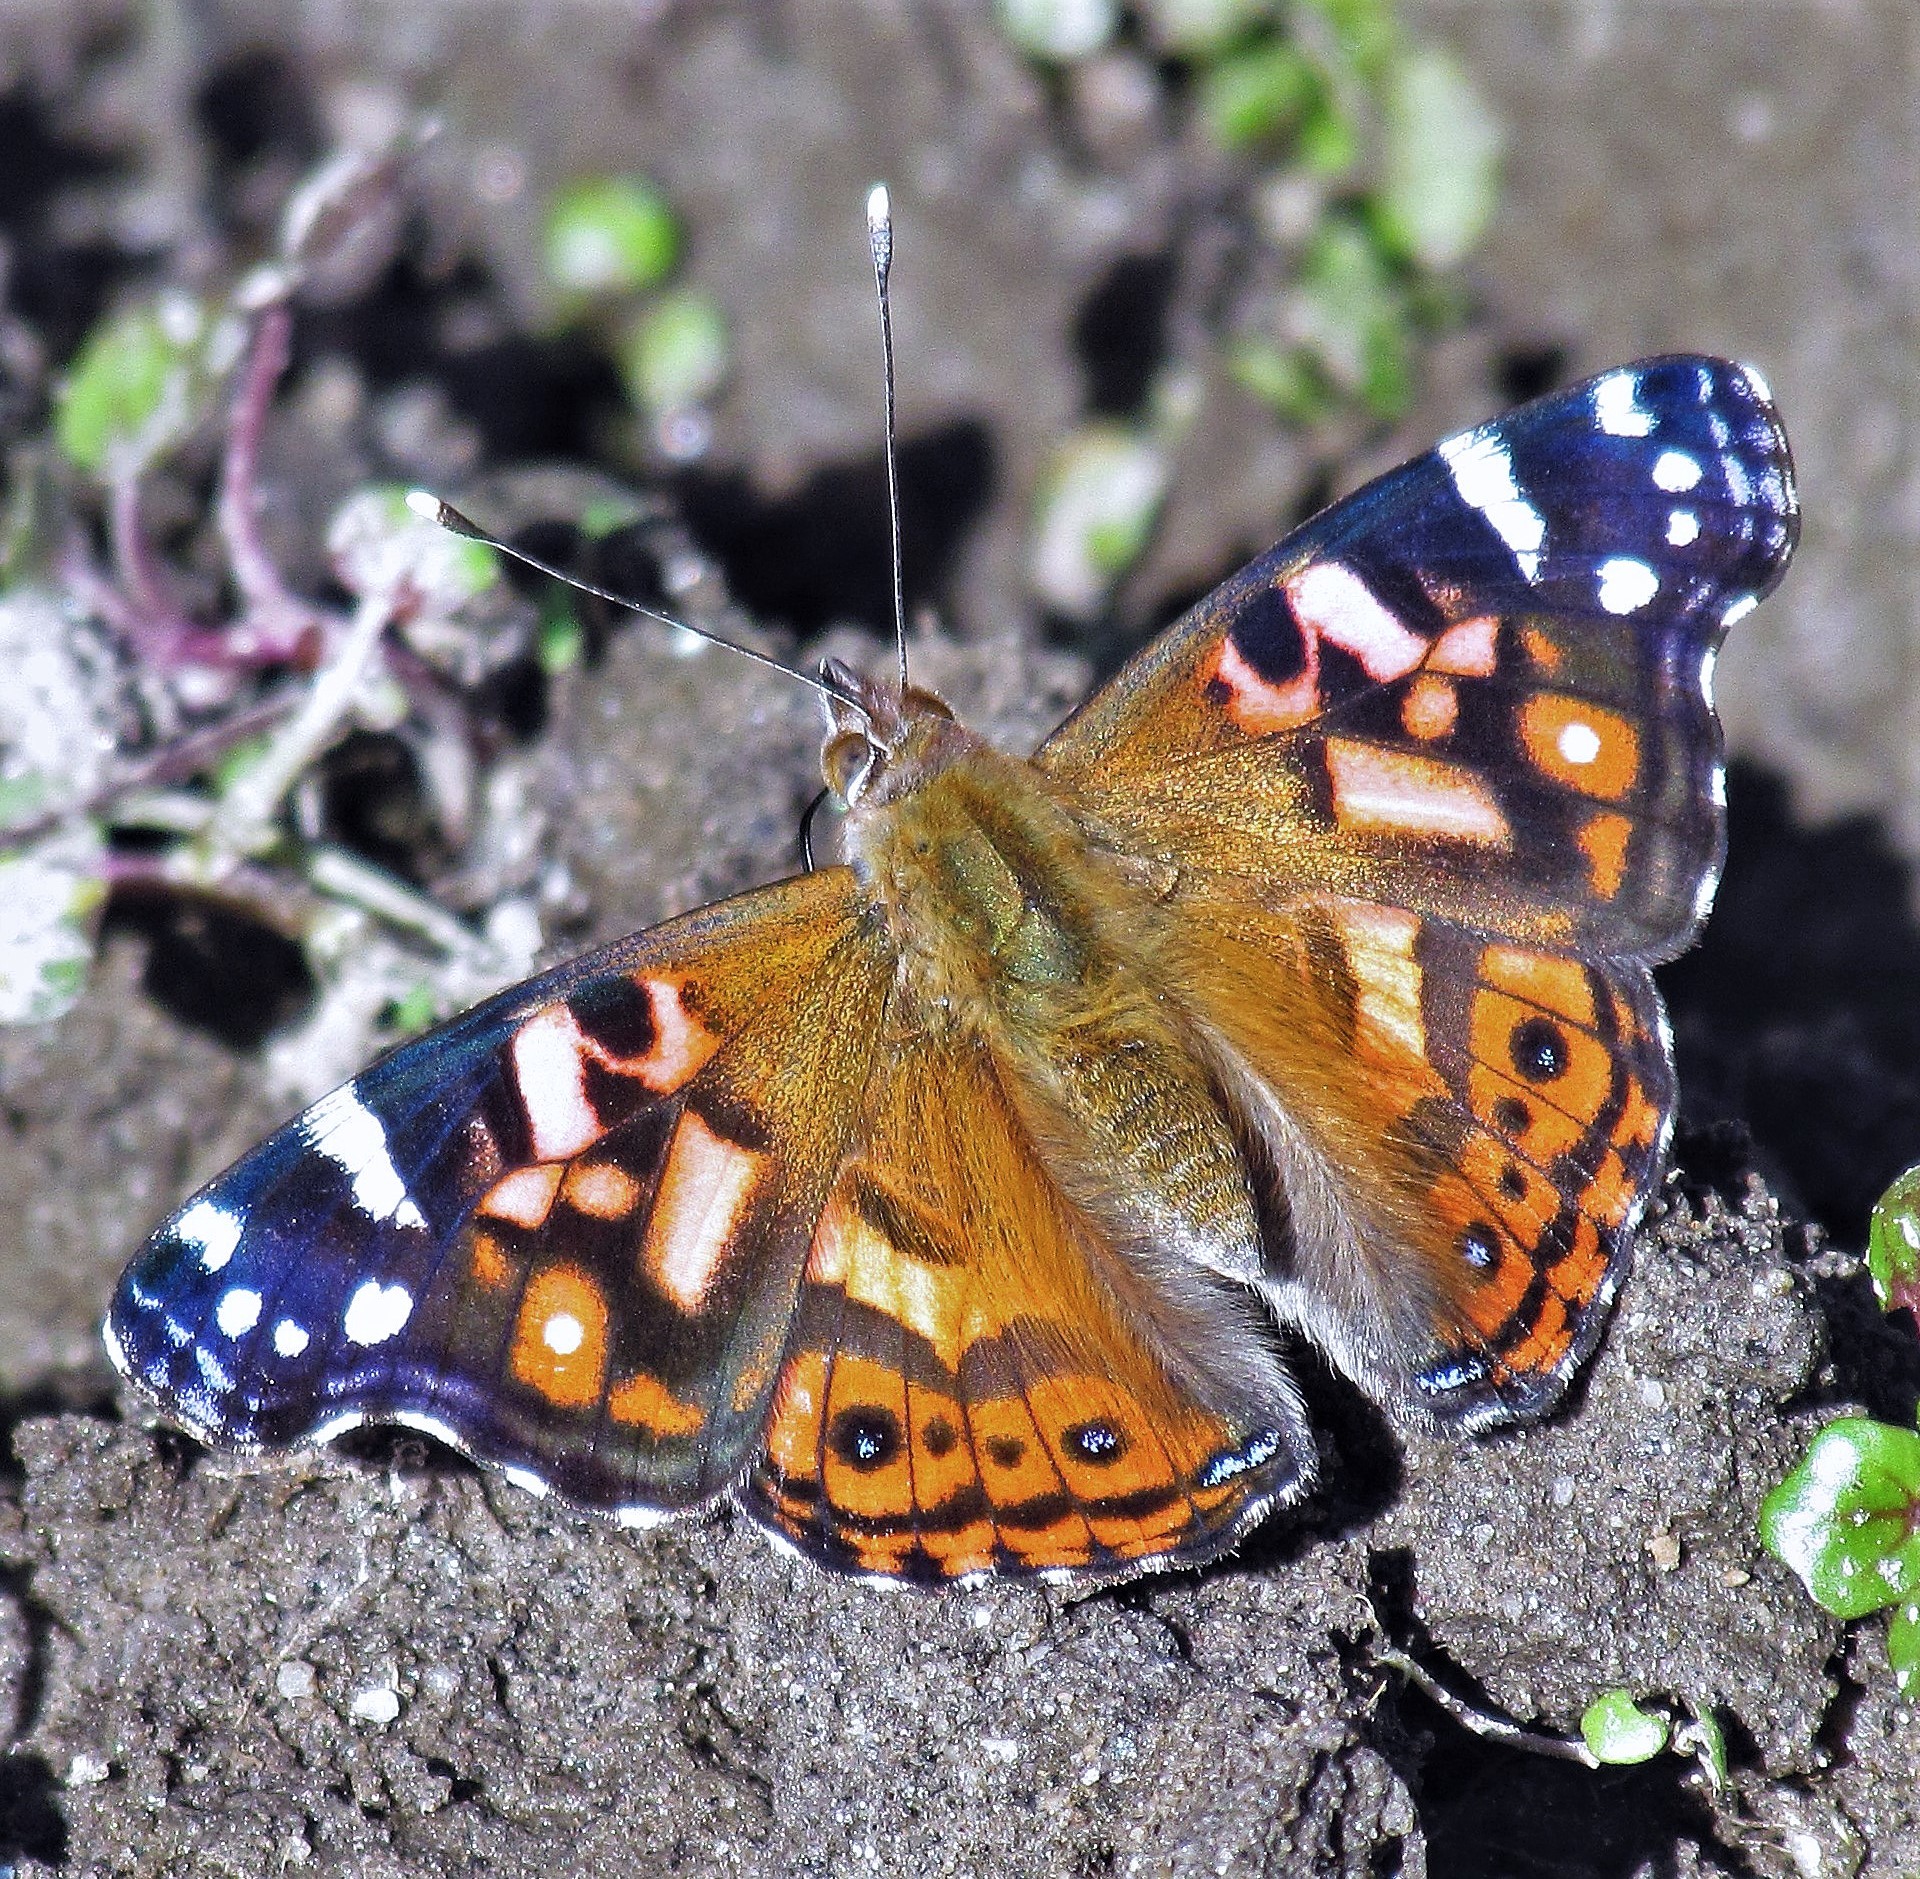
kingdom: Animalia
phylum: Arthropoda
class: Insecta
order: Lepidoptera
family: Nymphalidae
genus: Vanessa
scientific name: Vanessa altissima
